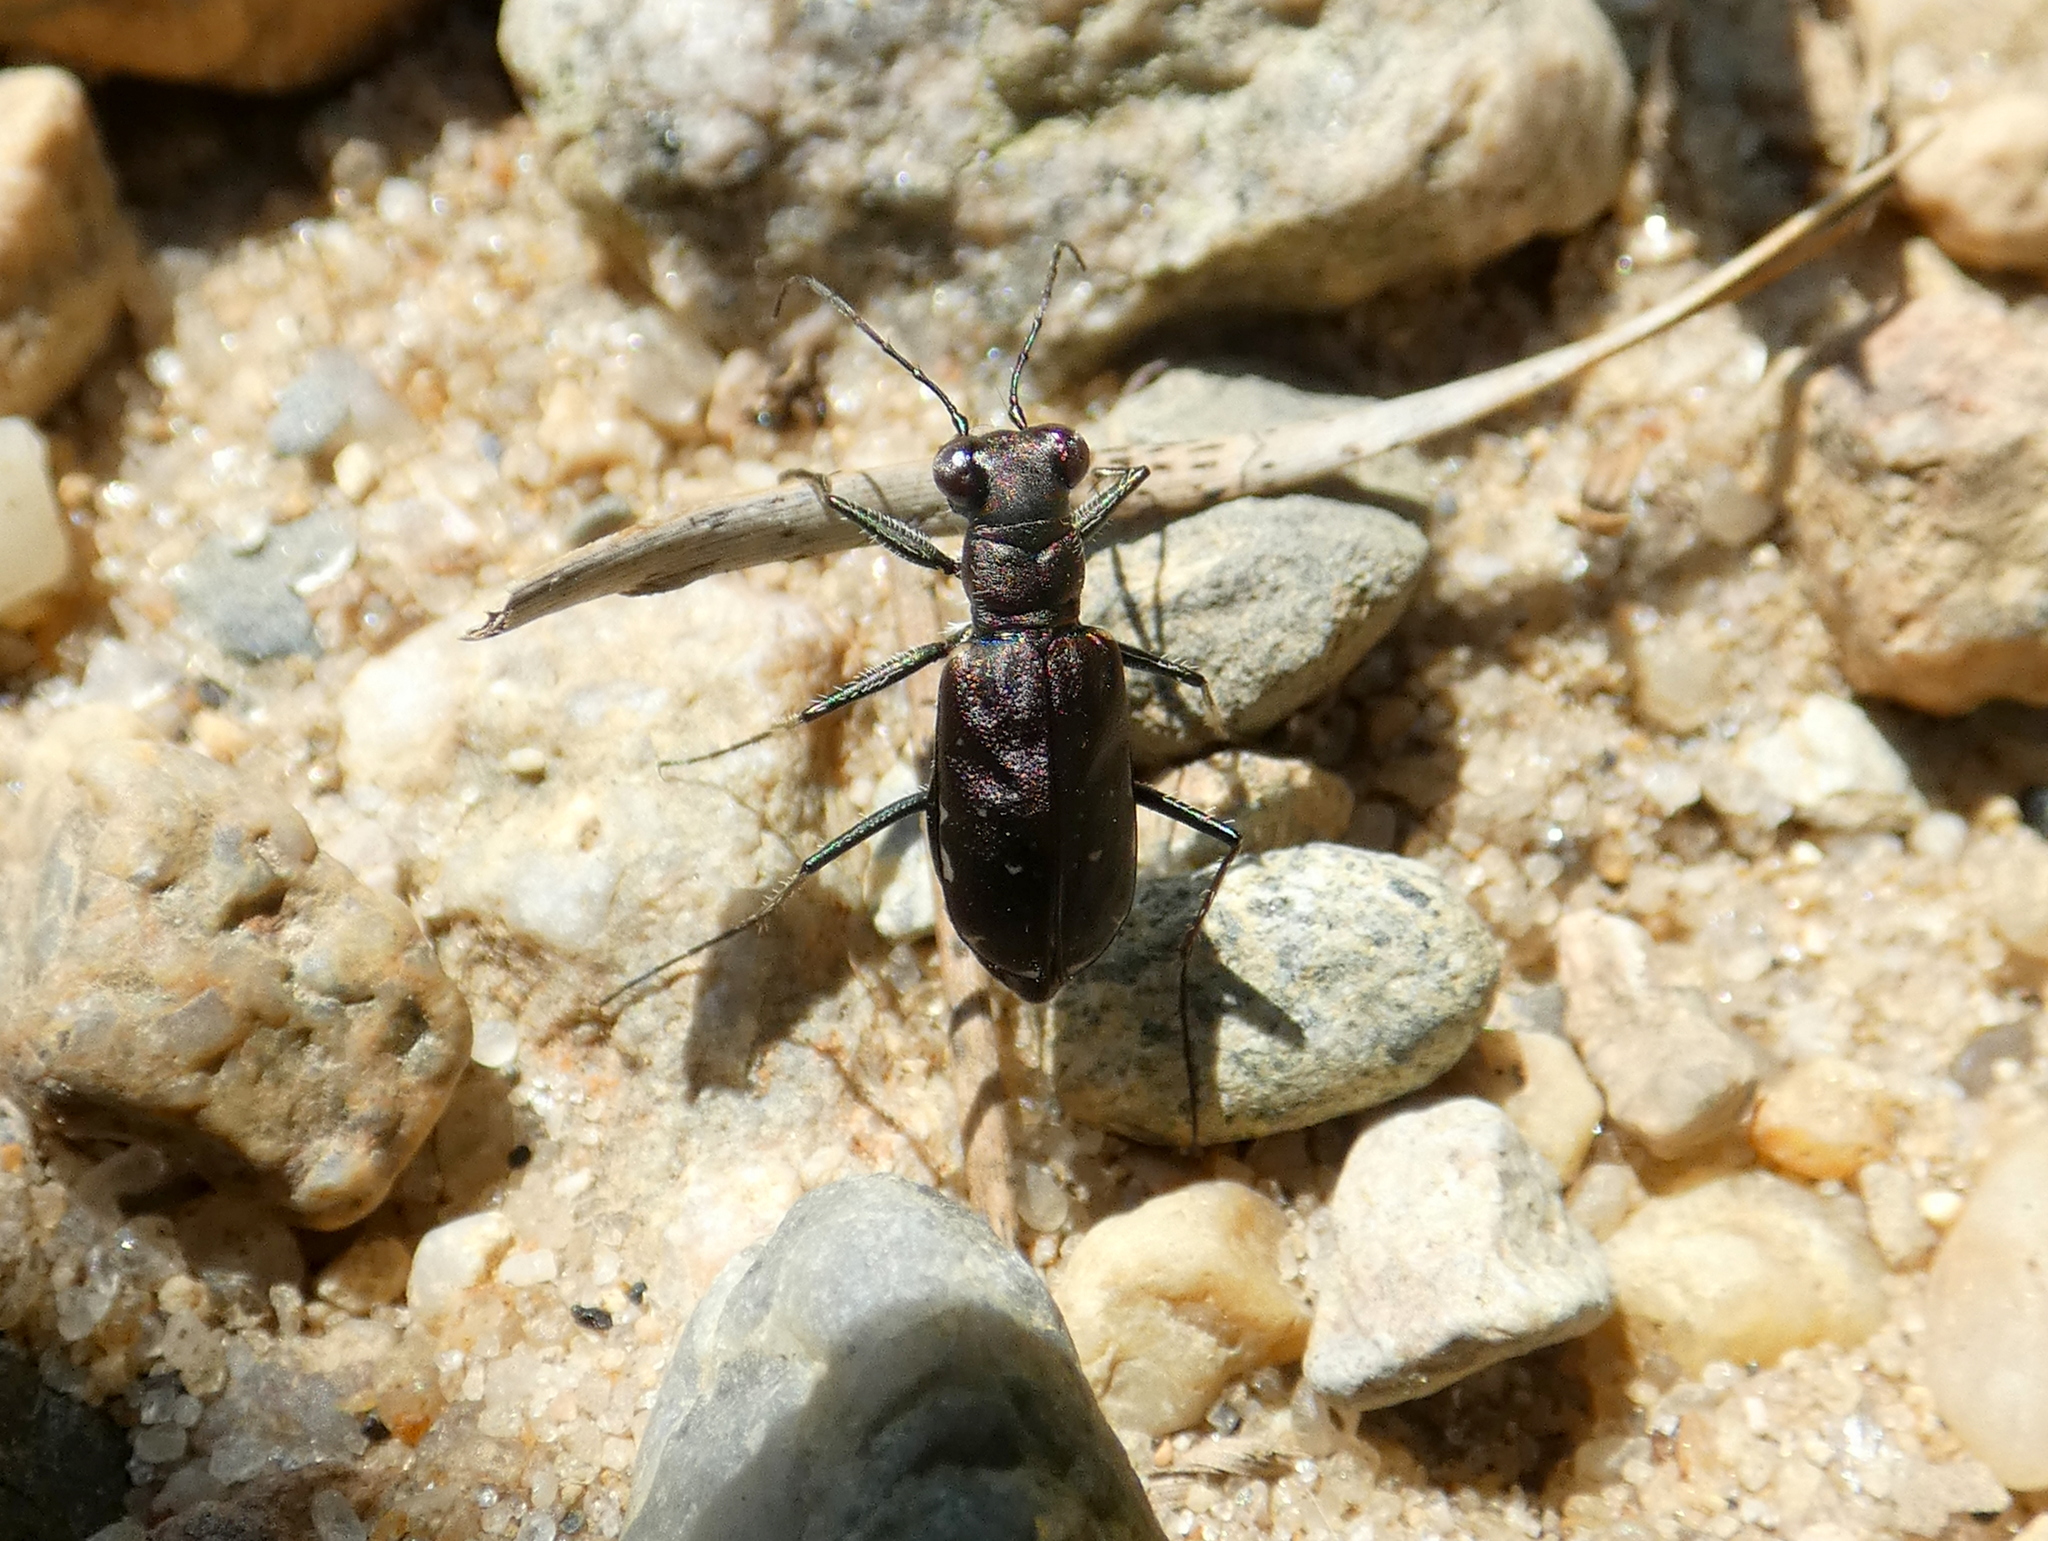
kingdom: Animalia
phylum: Arthropoda
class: Insecta
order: Coleoptera
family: Carabidae
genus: Cicindela
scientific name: Cicindela punctulata
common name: Punctured tiger beetle
